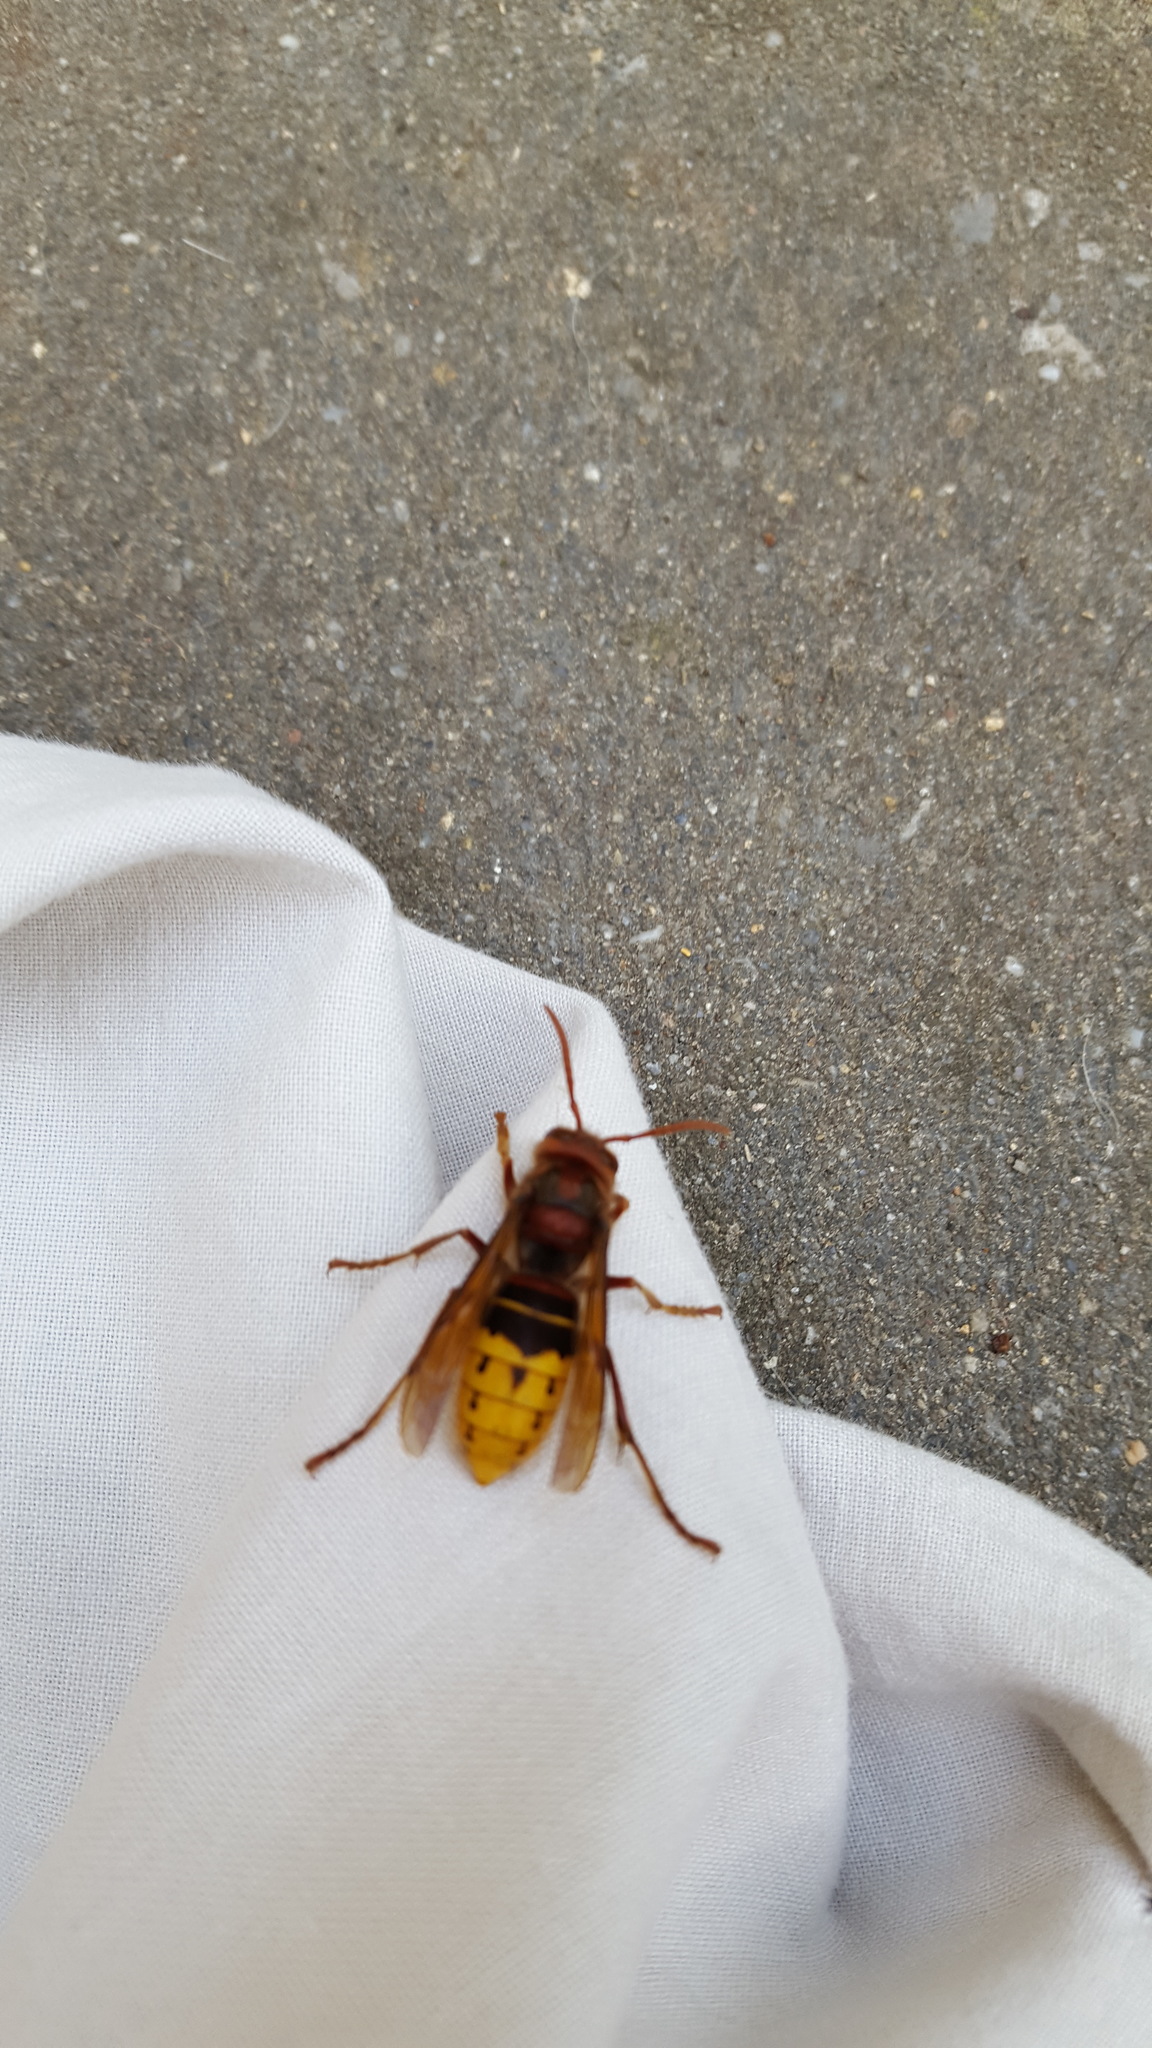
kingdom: Animalia
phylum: Arthropoda
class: Insecta
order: Hymenoptera
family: Vespidae
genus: Vespa
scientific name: Vespa crabro
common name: Hornet
